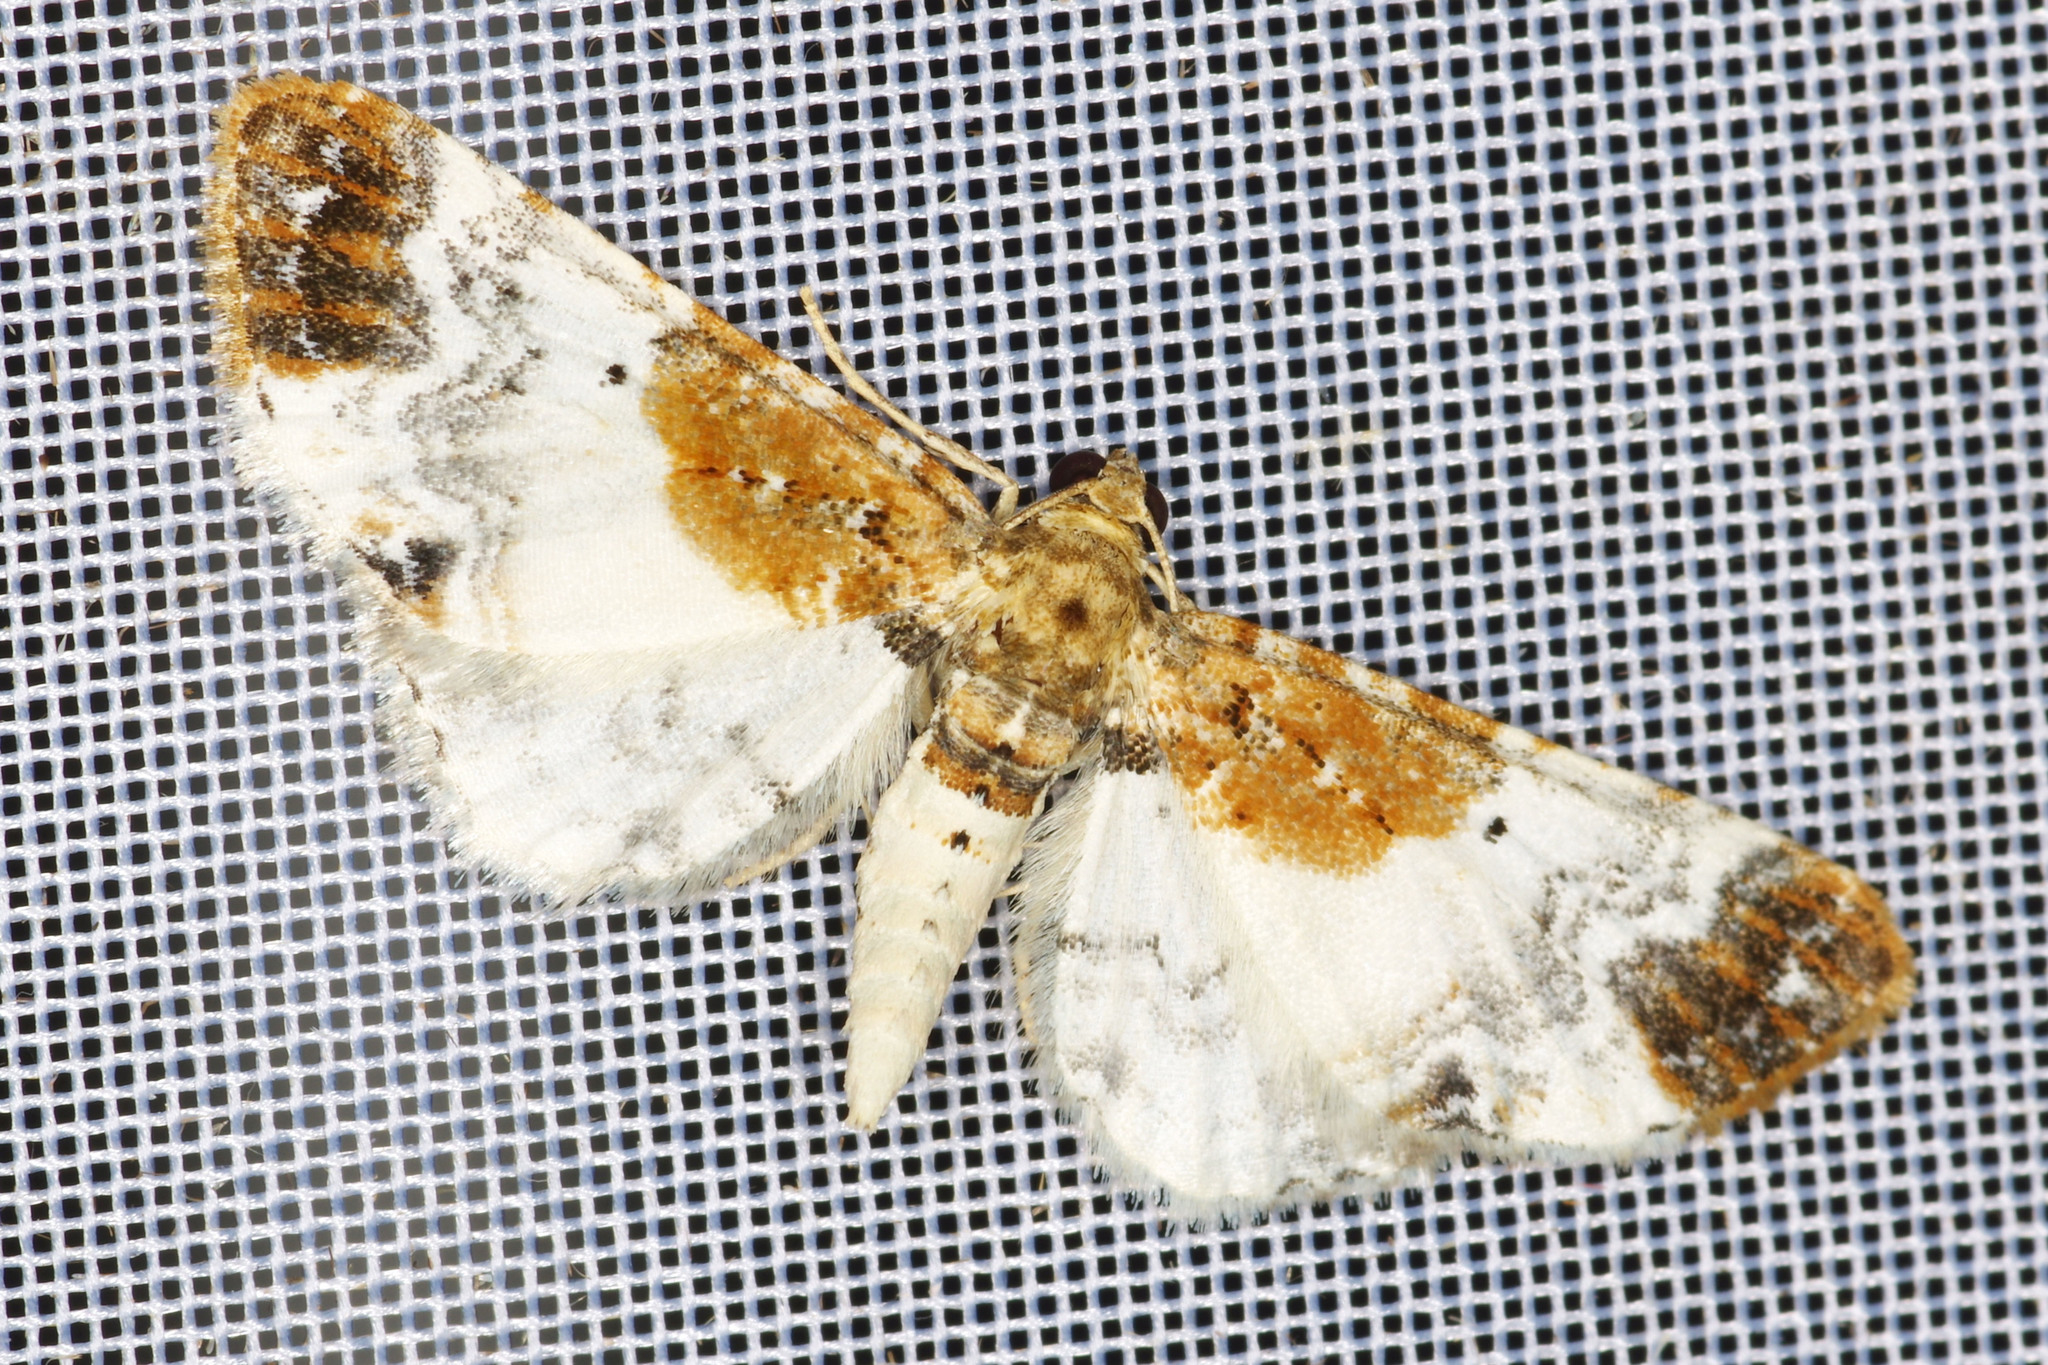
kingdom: Animalia
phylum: Arthropoda
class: Insecta
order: Lepidoptera
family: Geometridae
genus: Eupithecia
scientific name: Eupithecia breviculata
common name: Rusty-shouldered pug
